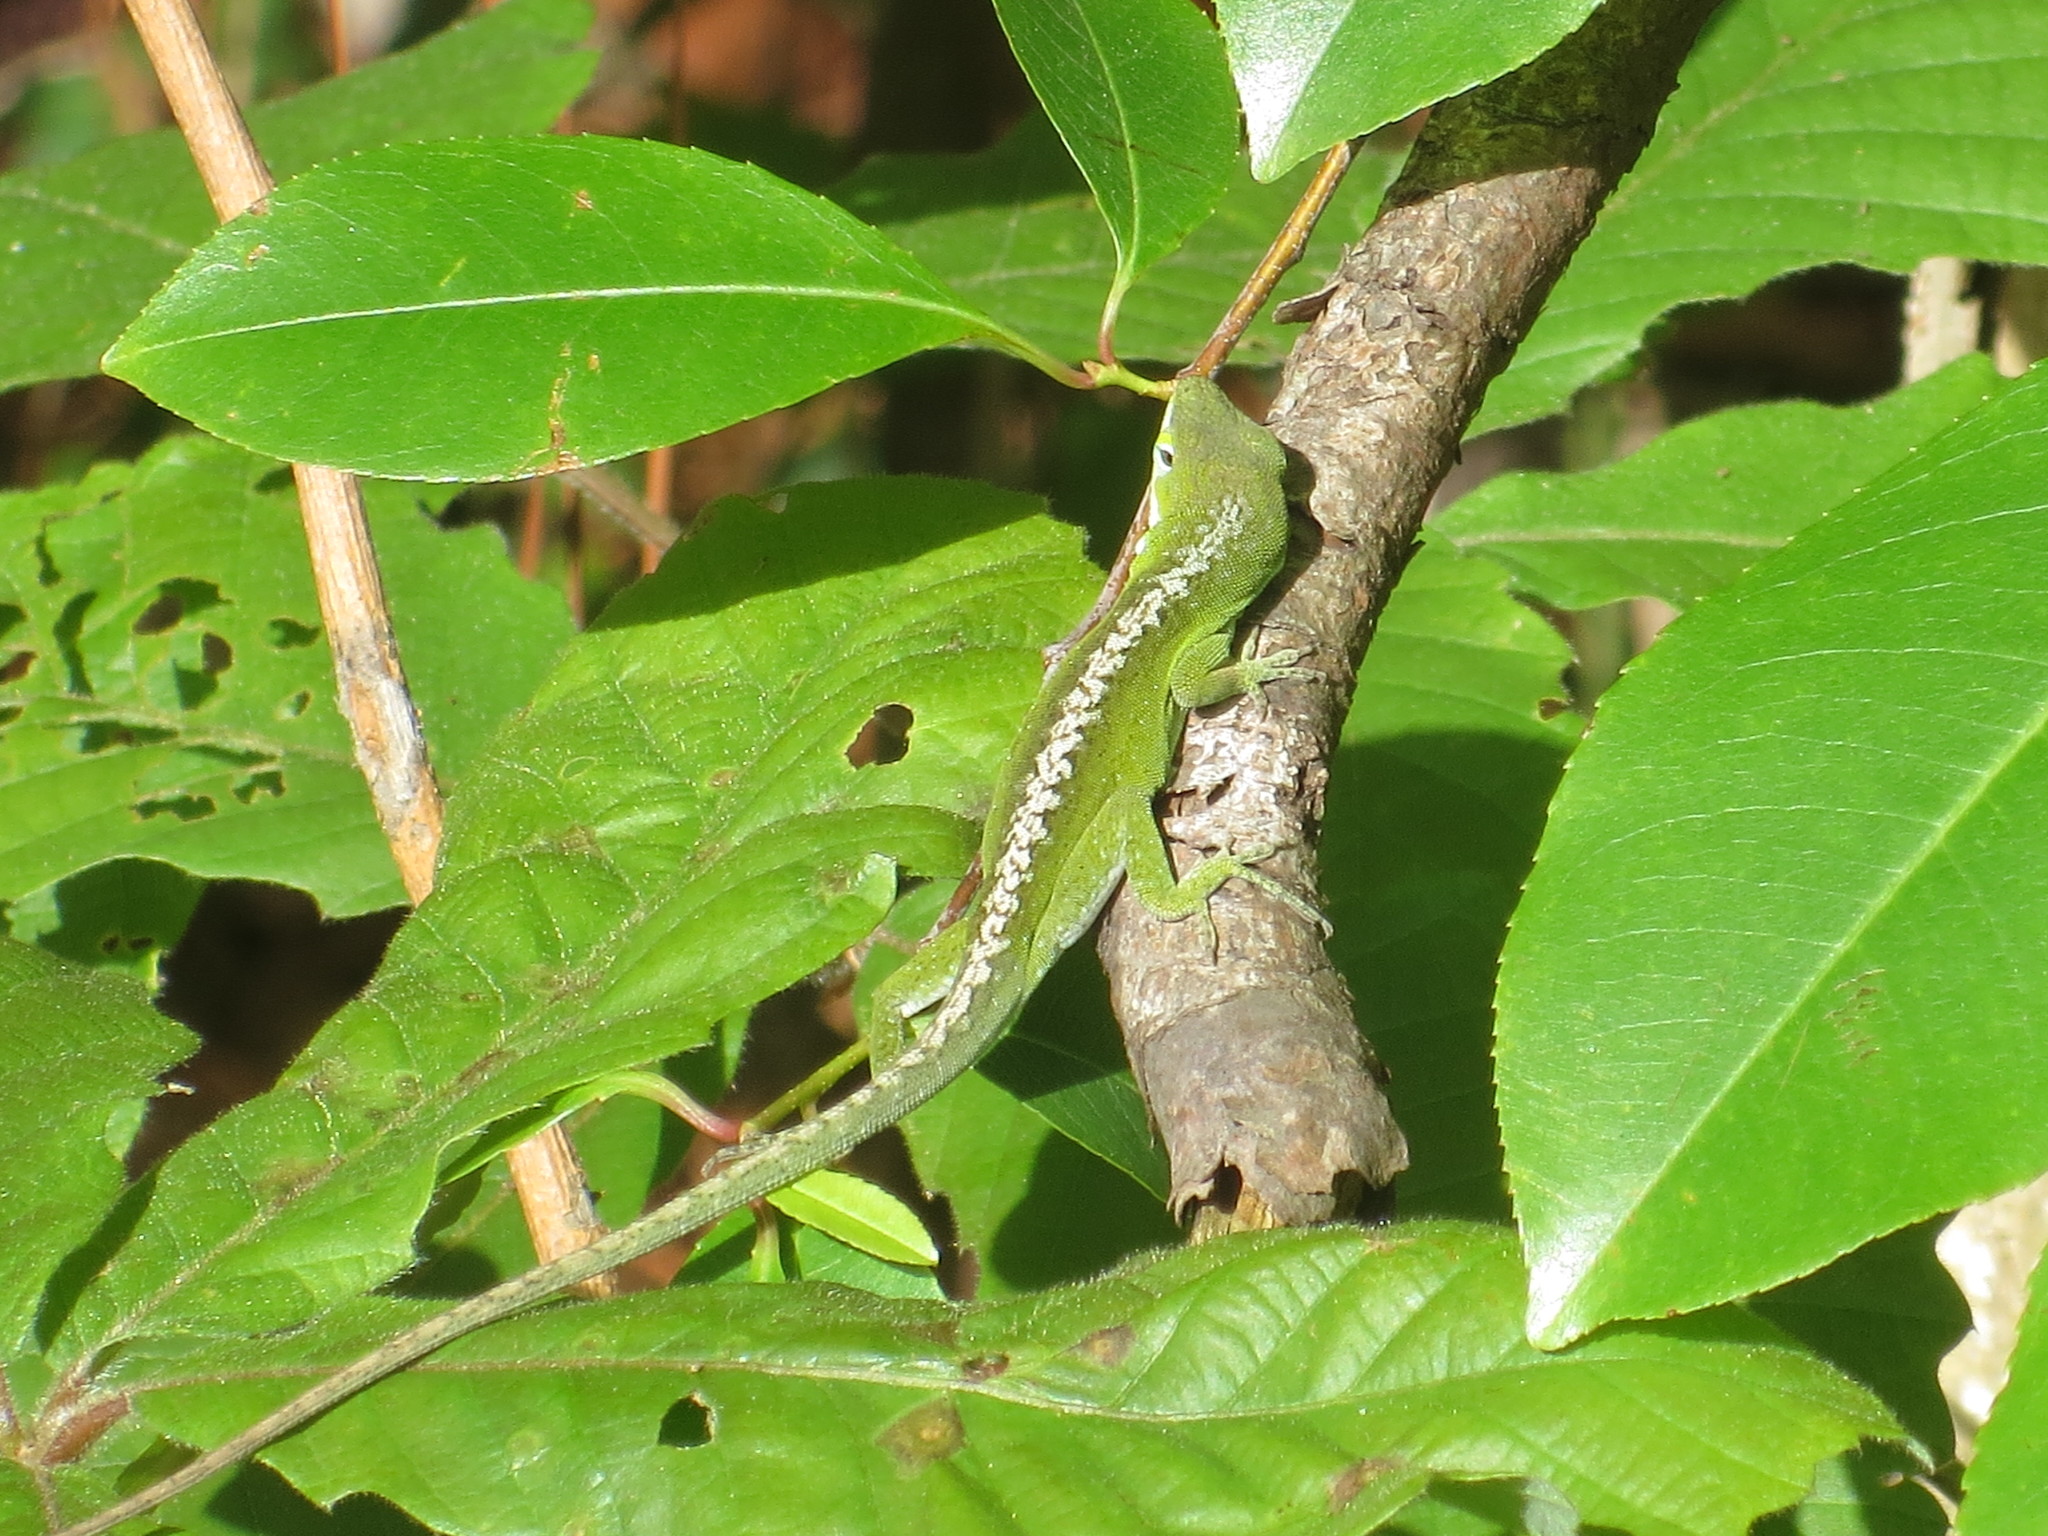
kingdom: Animalia
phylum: Chordata
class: Squamata
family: Dactyloidae
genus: Anolis
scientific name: Anolis carolinensis
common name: Green anole
